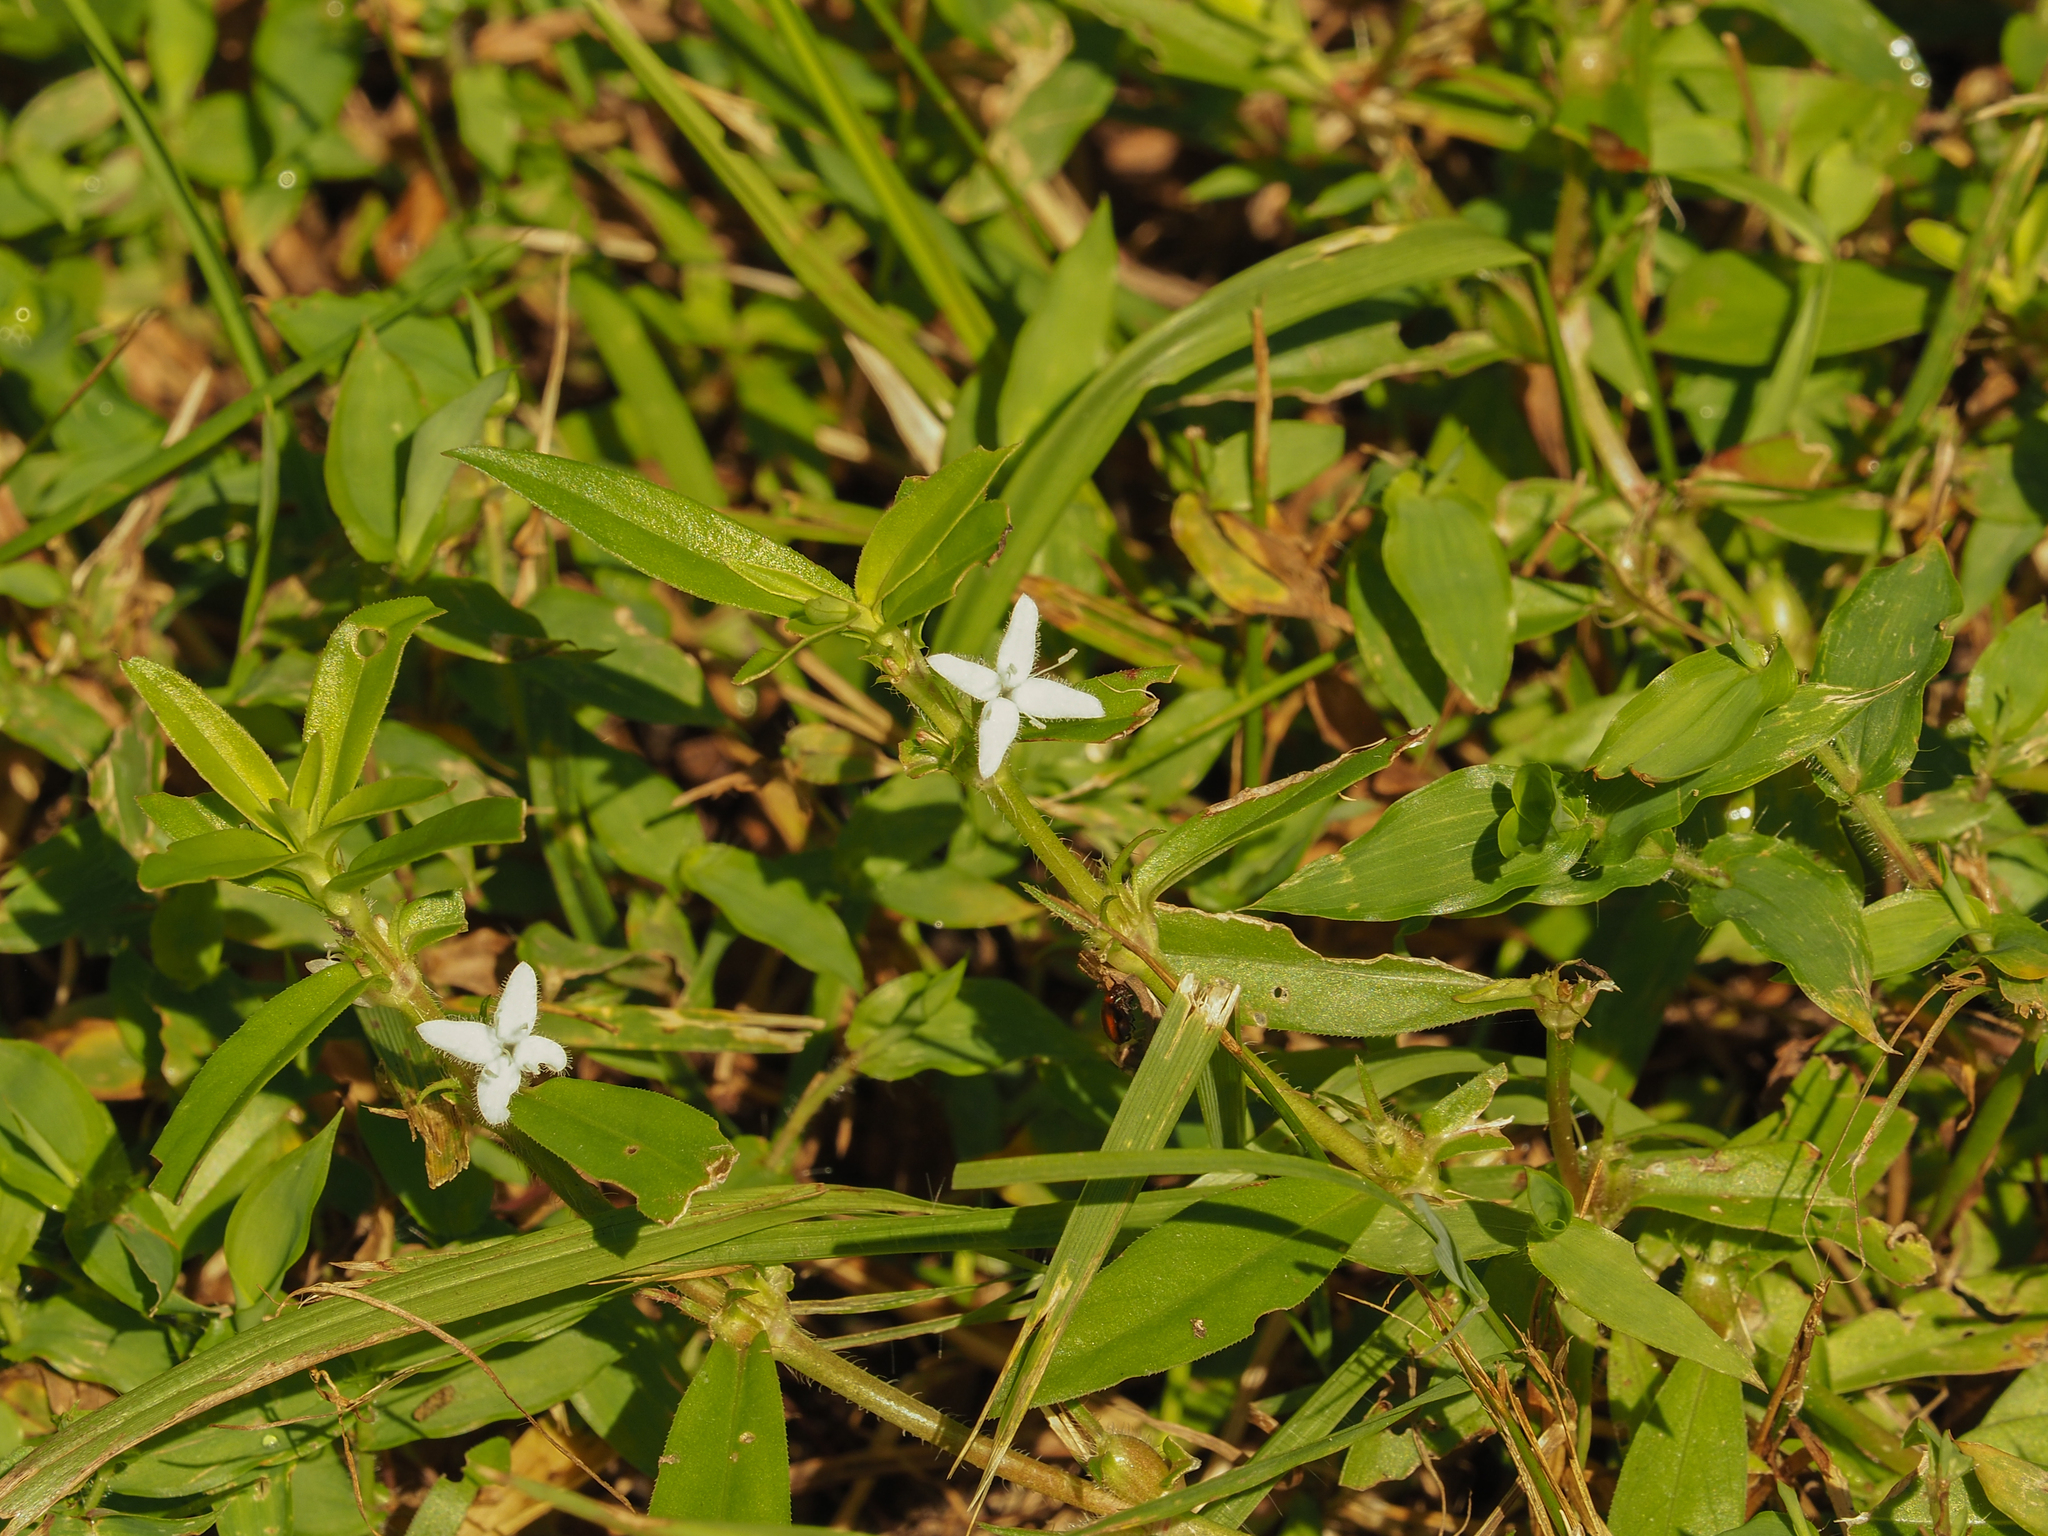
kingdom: Plantae
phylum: Tracheophyta
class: Magnoliopsida
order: Gentianales
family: Rubiaceae
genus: Diodia
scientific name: Diodia virginiana
